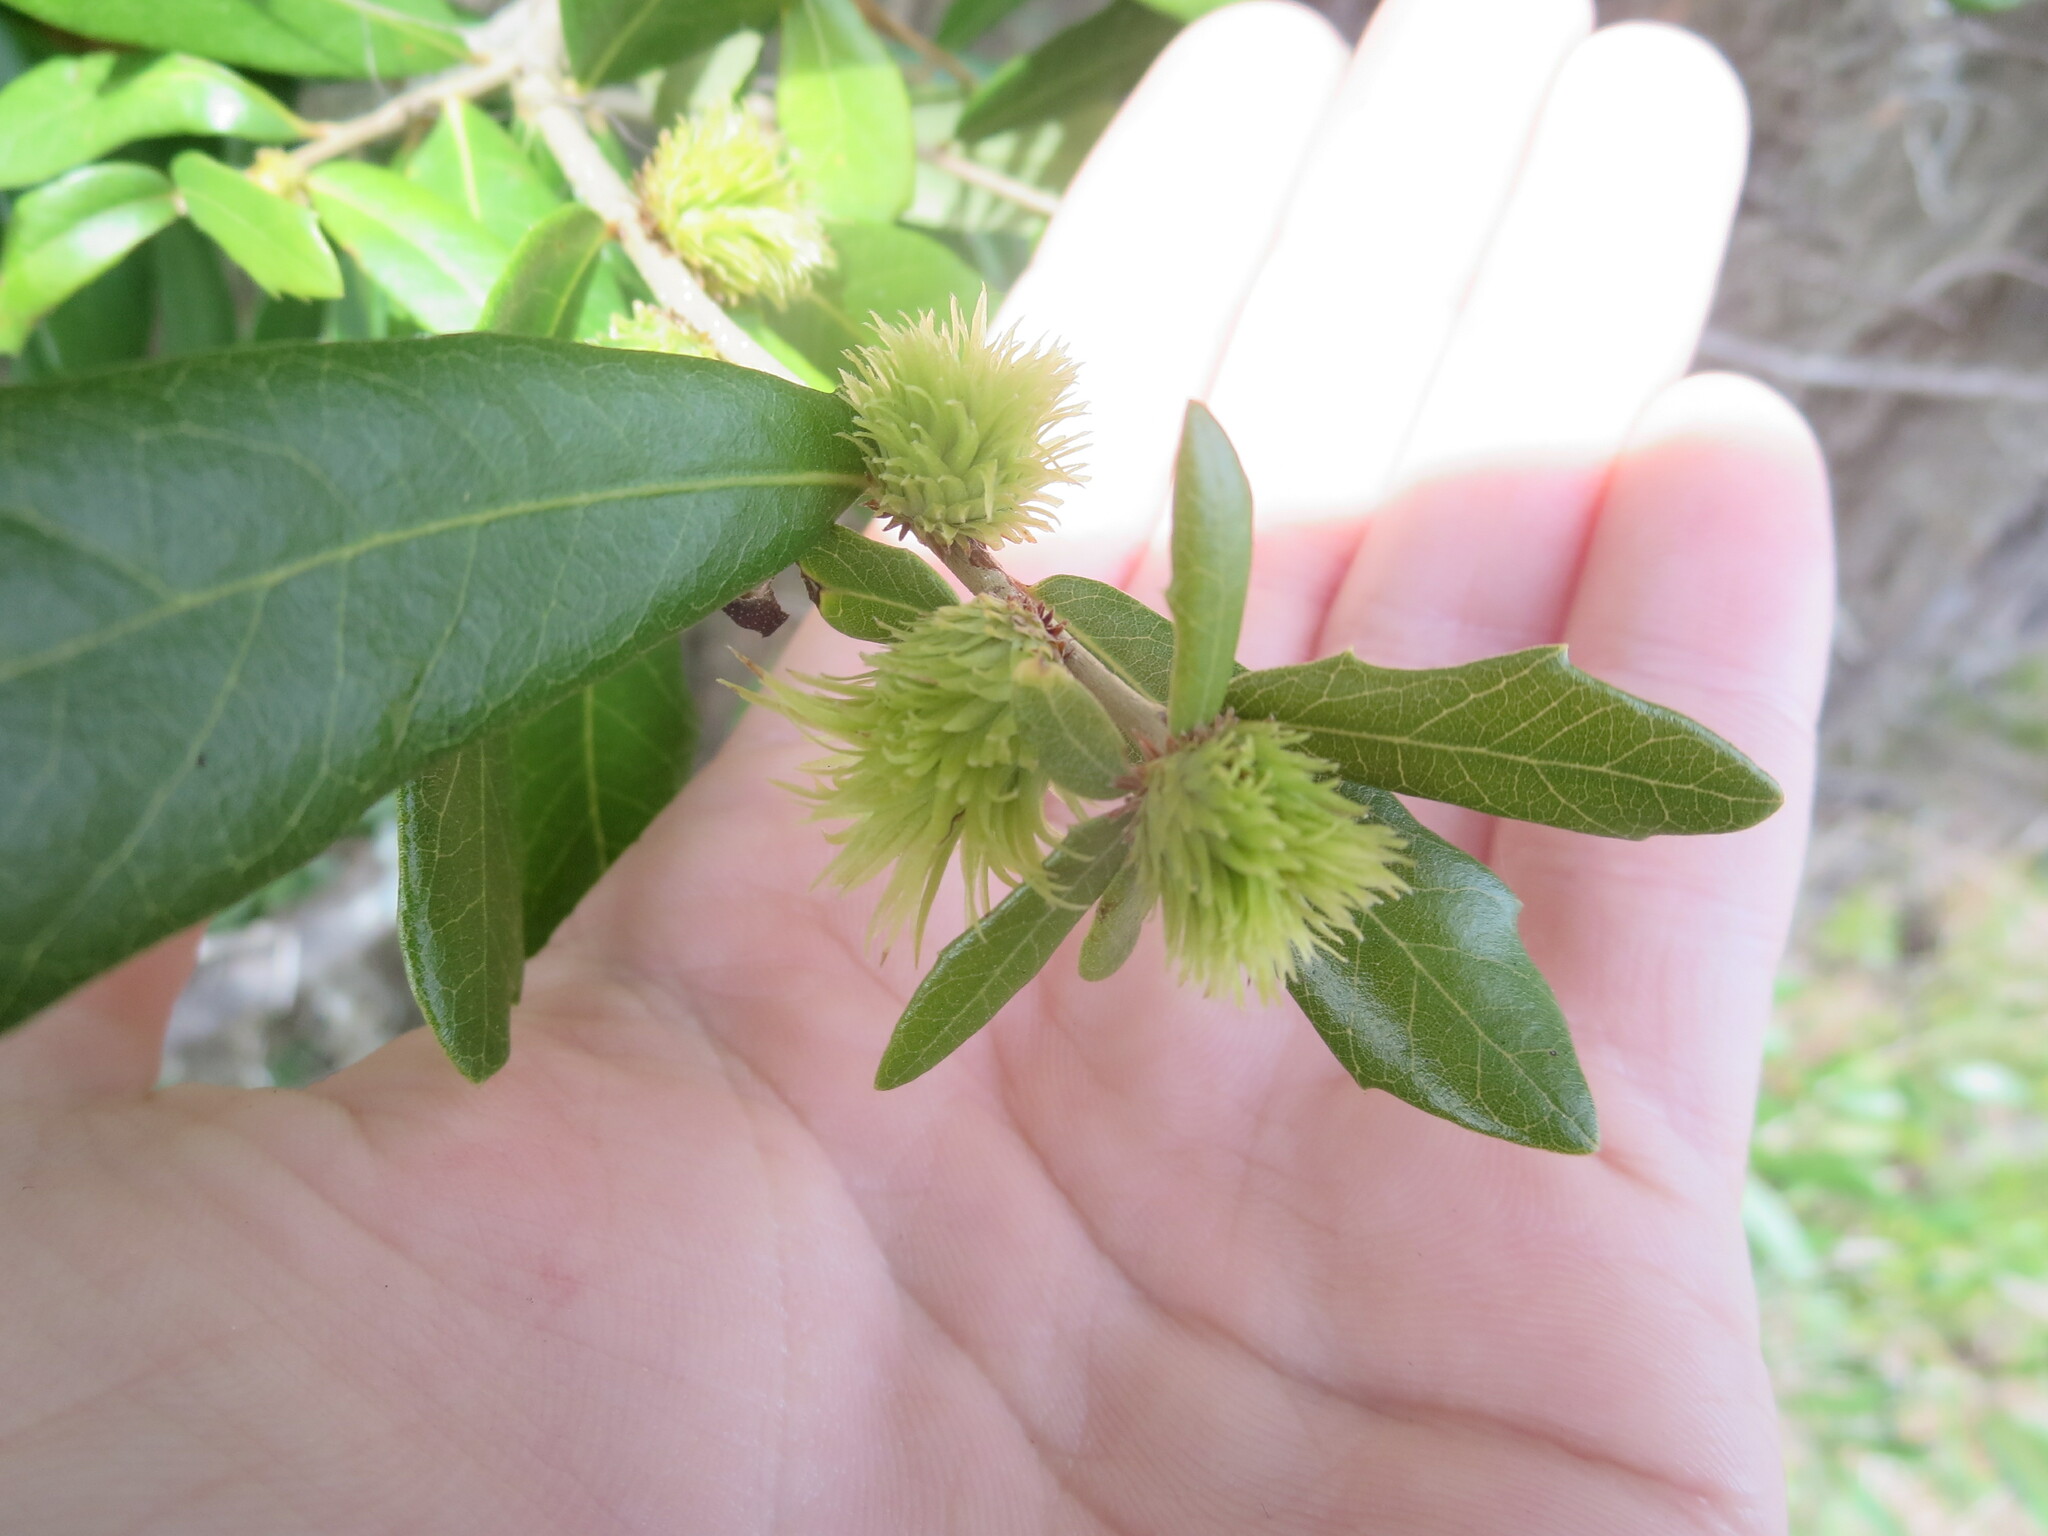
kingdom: Animalia
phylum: Arthropoda
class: Insecta
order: Hymenoptera
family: Cynipidae
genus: Andricus
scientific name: Andricus quercusfoliatus
